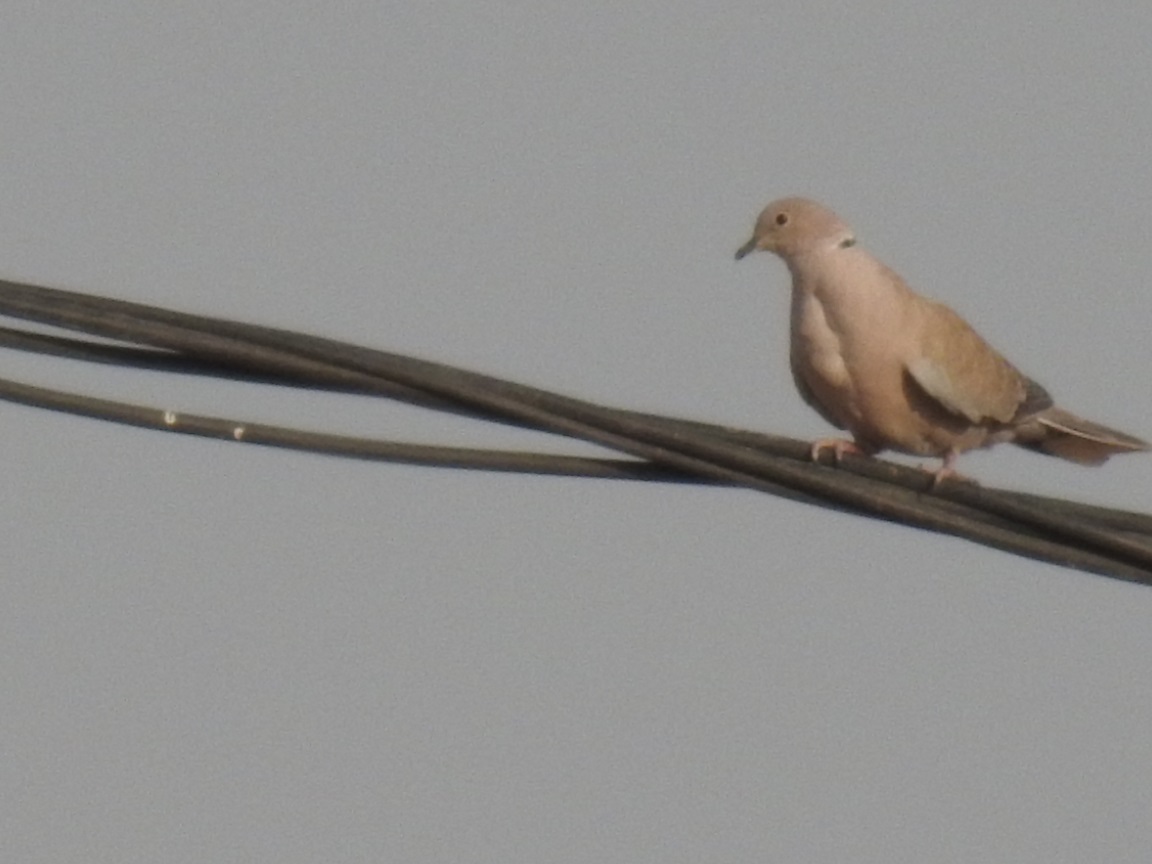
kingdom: Animalia
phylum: Chordata
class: Aves
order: Columbiformes
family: Columbidae
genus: Streptopelia
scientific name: Streptopelia decaocto
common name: Eurasian collared dove
